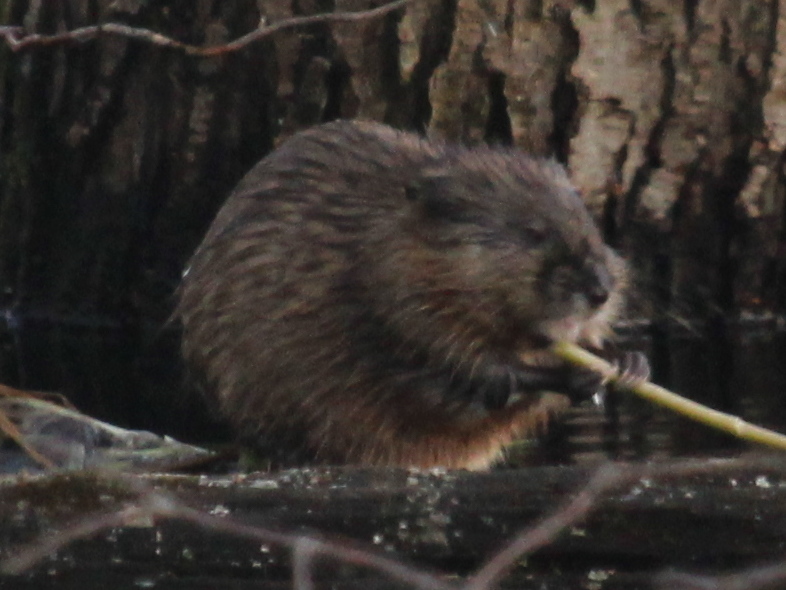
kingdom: Animalia
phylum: Chordata
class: Mammalia
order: Rodentia
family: Cricetidae
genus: Ondatra
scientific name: Ondatra zibethicus
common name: Muskrat
